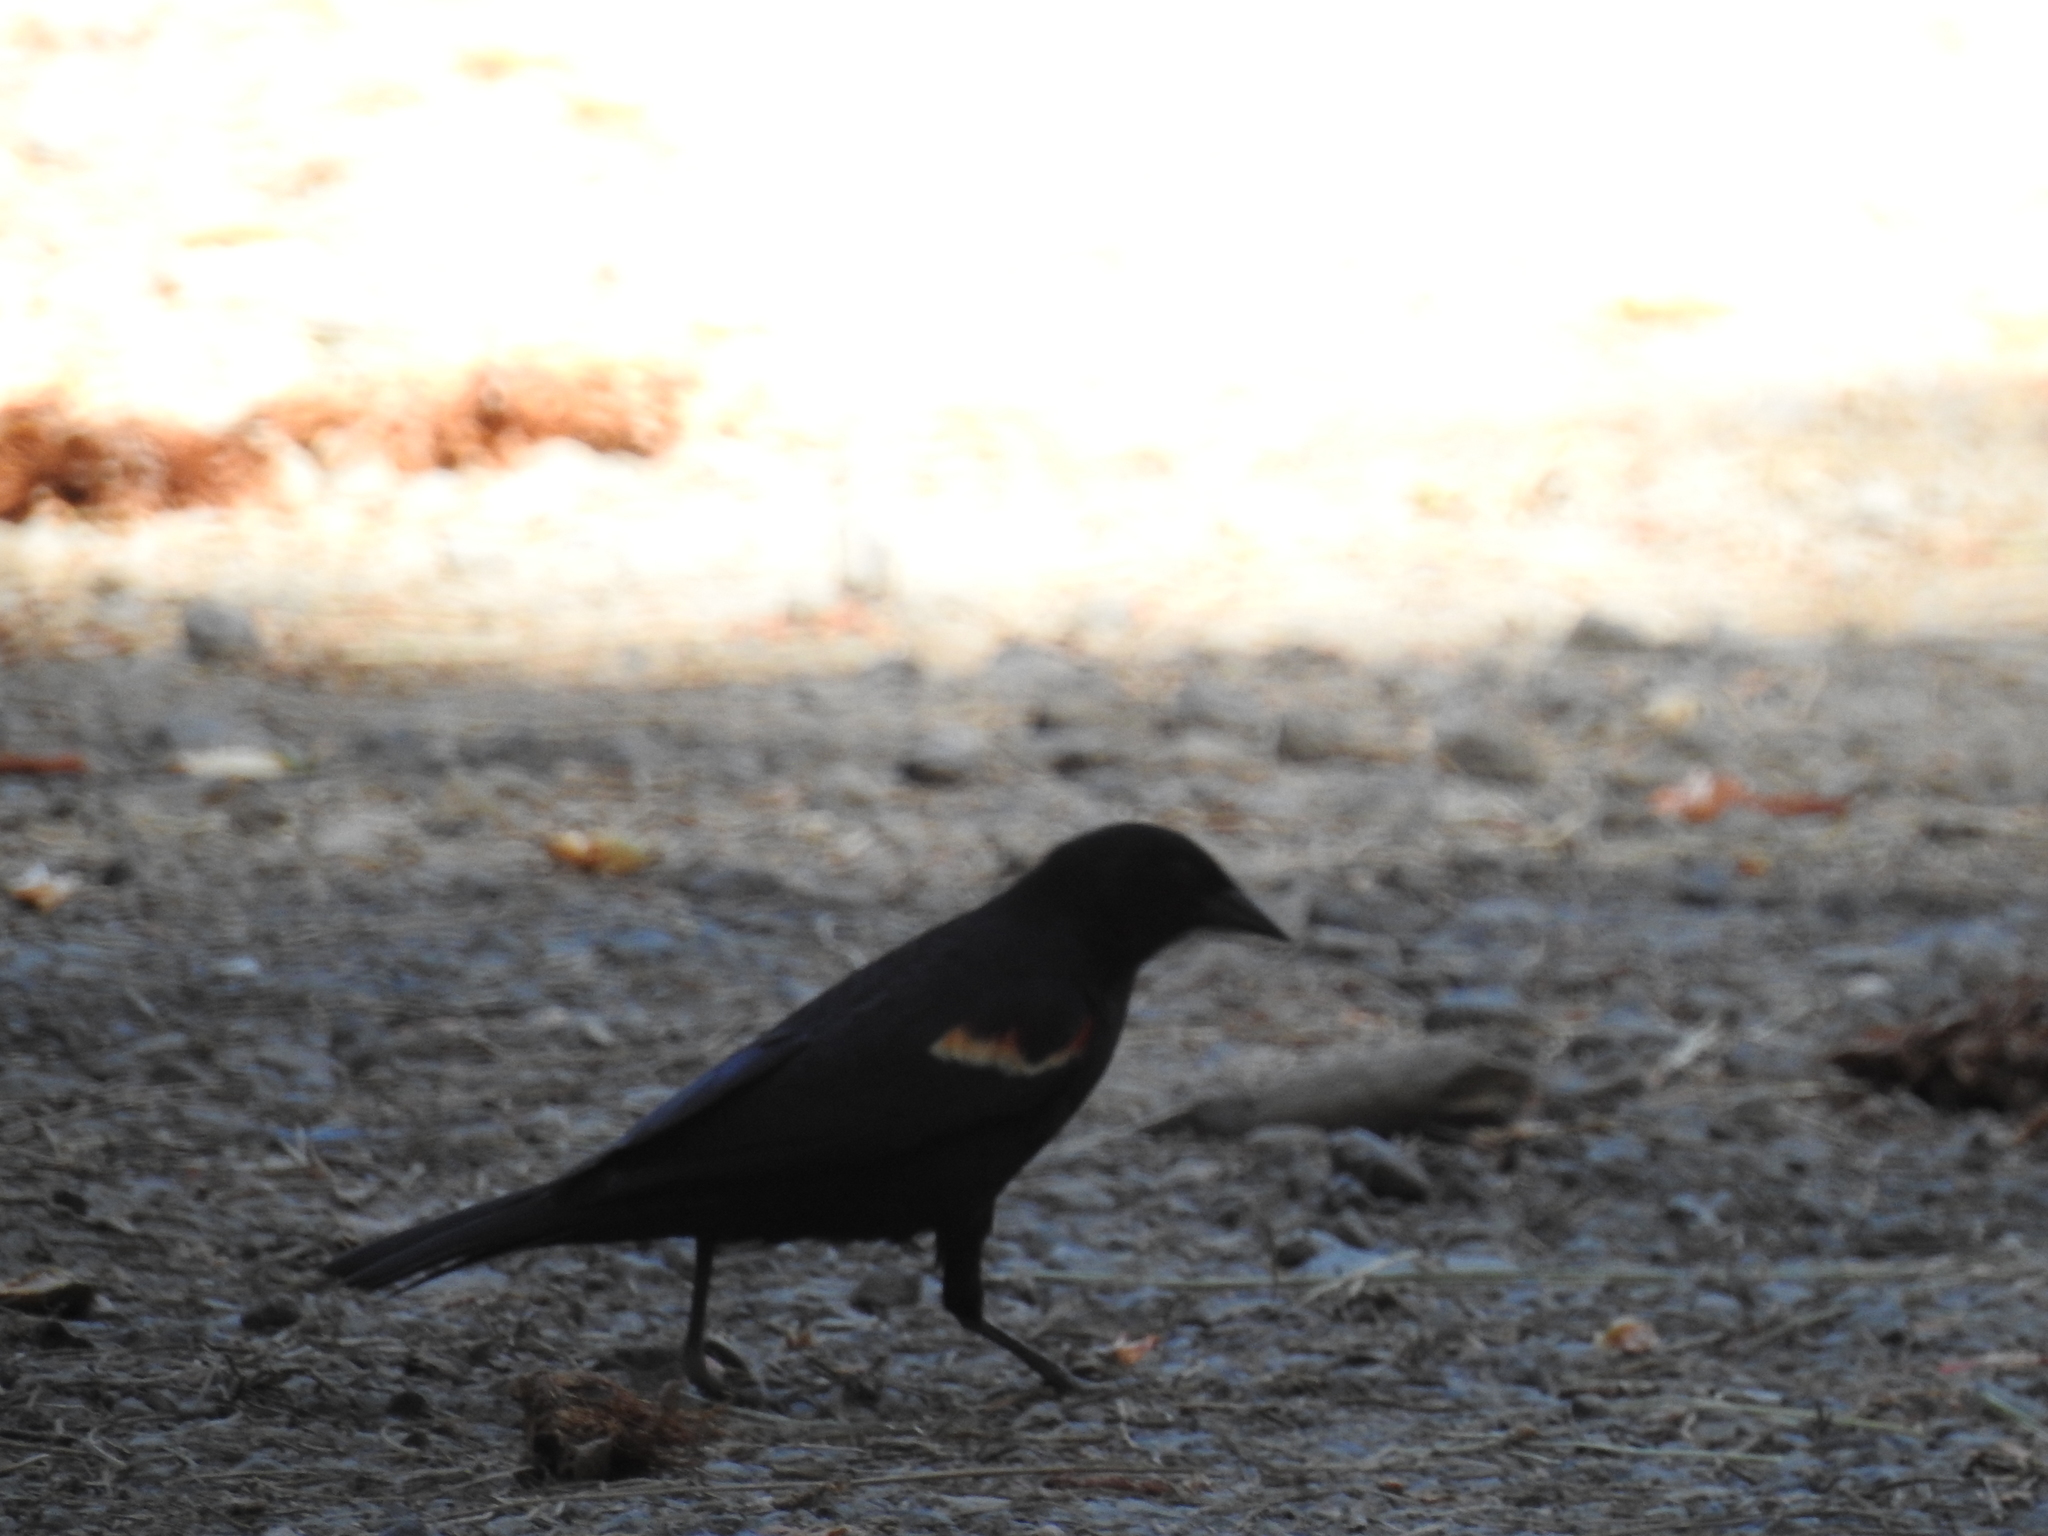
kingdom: Animalia
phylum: Chordata
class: Aves
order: Passeriformes
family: Icteridae
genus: Agelaius
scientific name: Agelaius phoeniceus
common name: Red-winged blackbird
